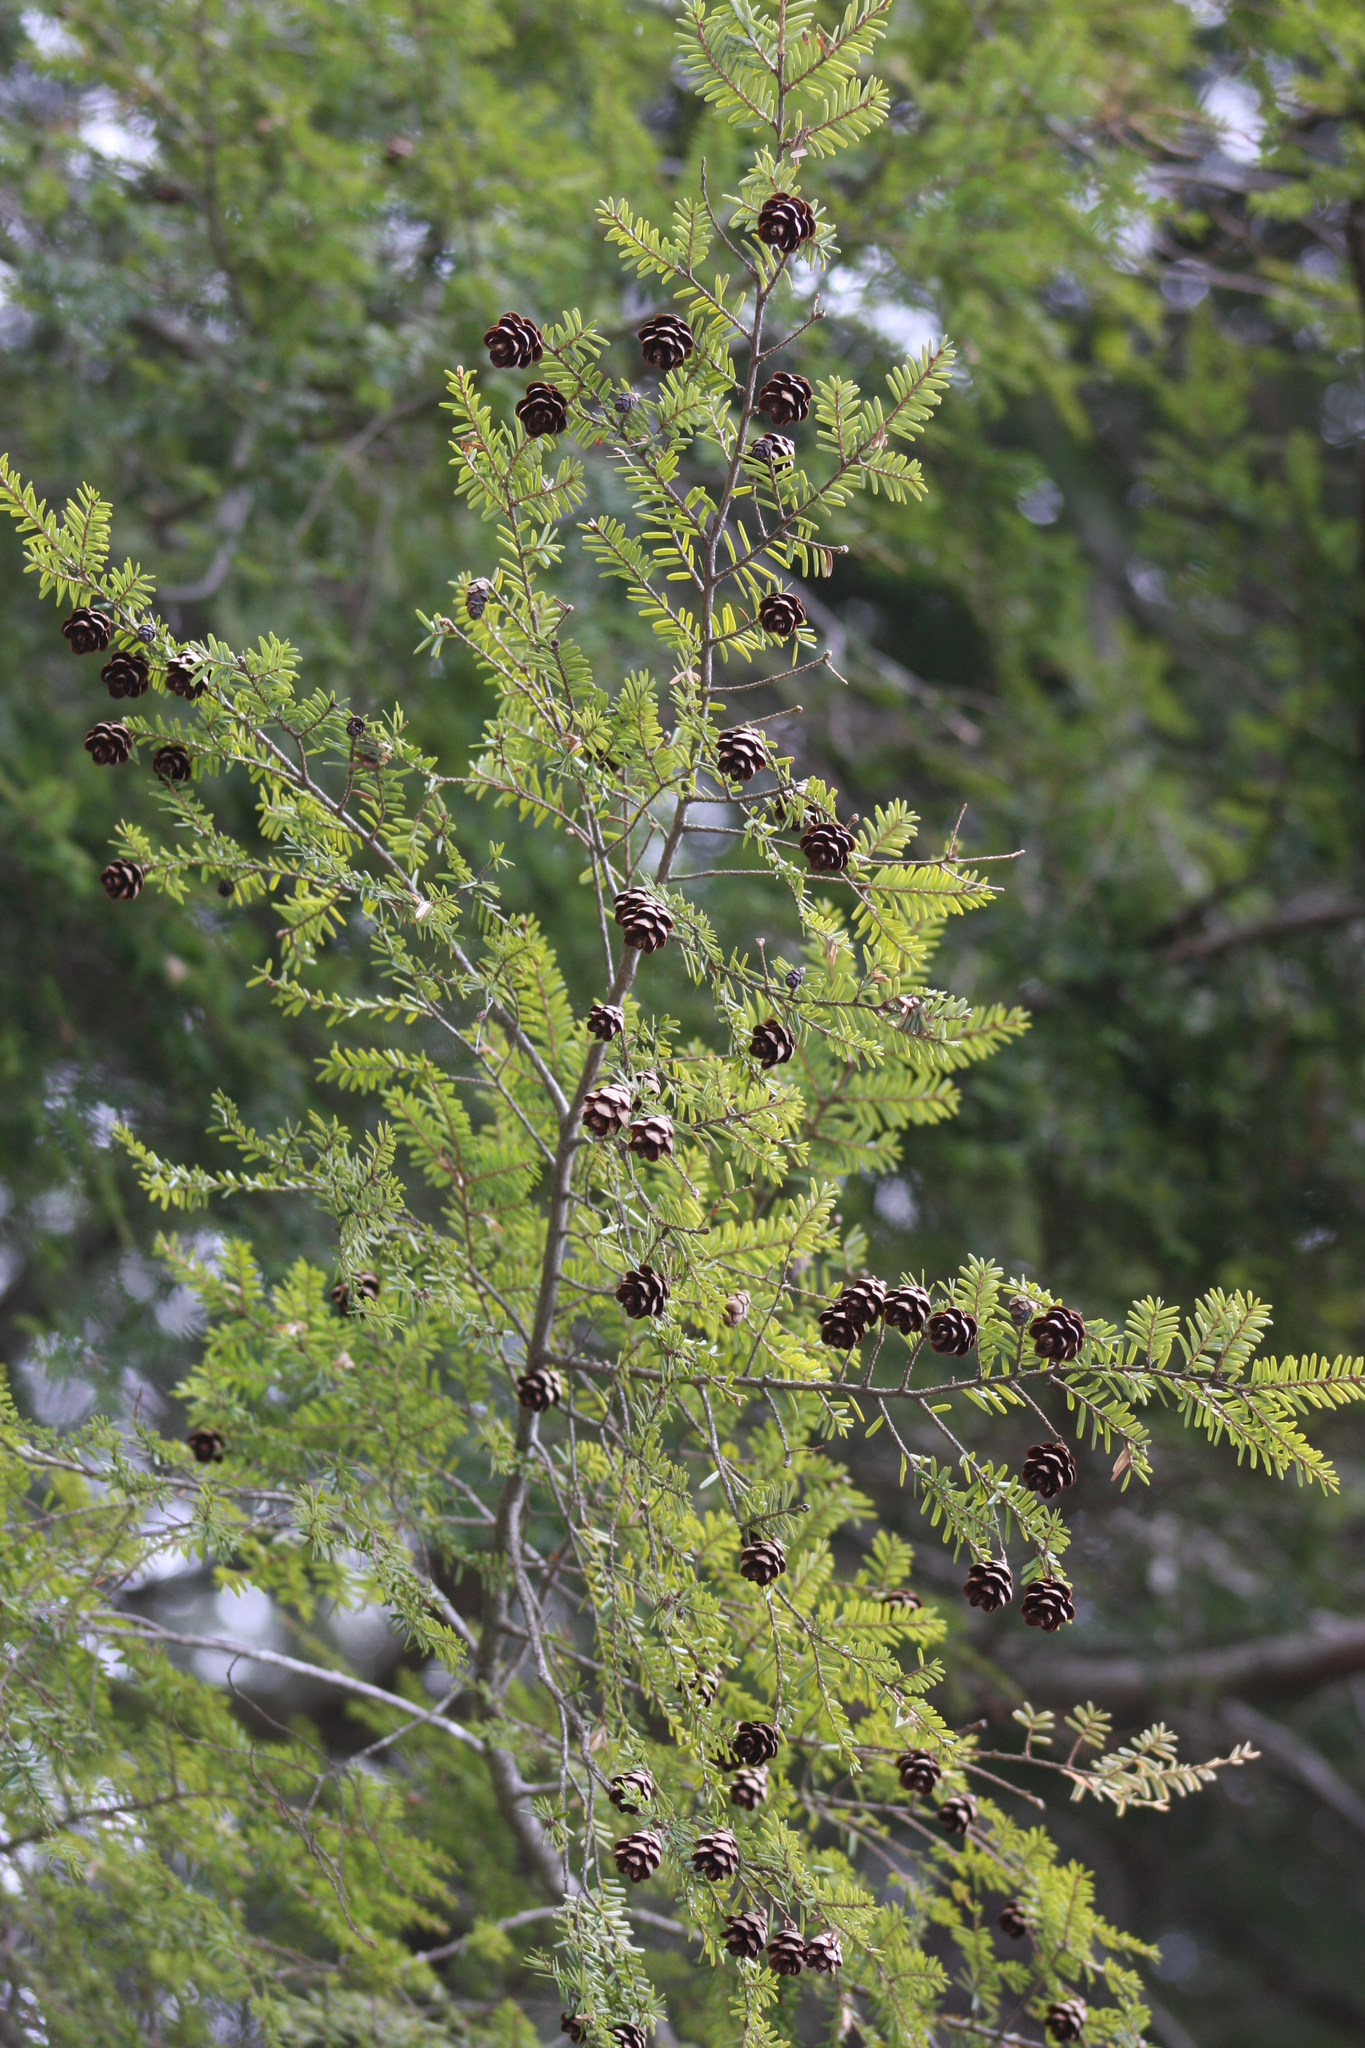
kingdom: Plantae
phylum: Tracheophyta
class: Pinopsida
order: Pinales
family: Pinaceae
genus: Tsuga
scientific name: Tsuga canadensis
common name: Eastern hemlock
